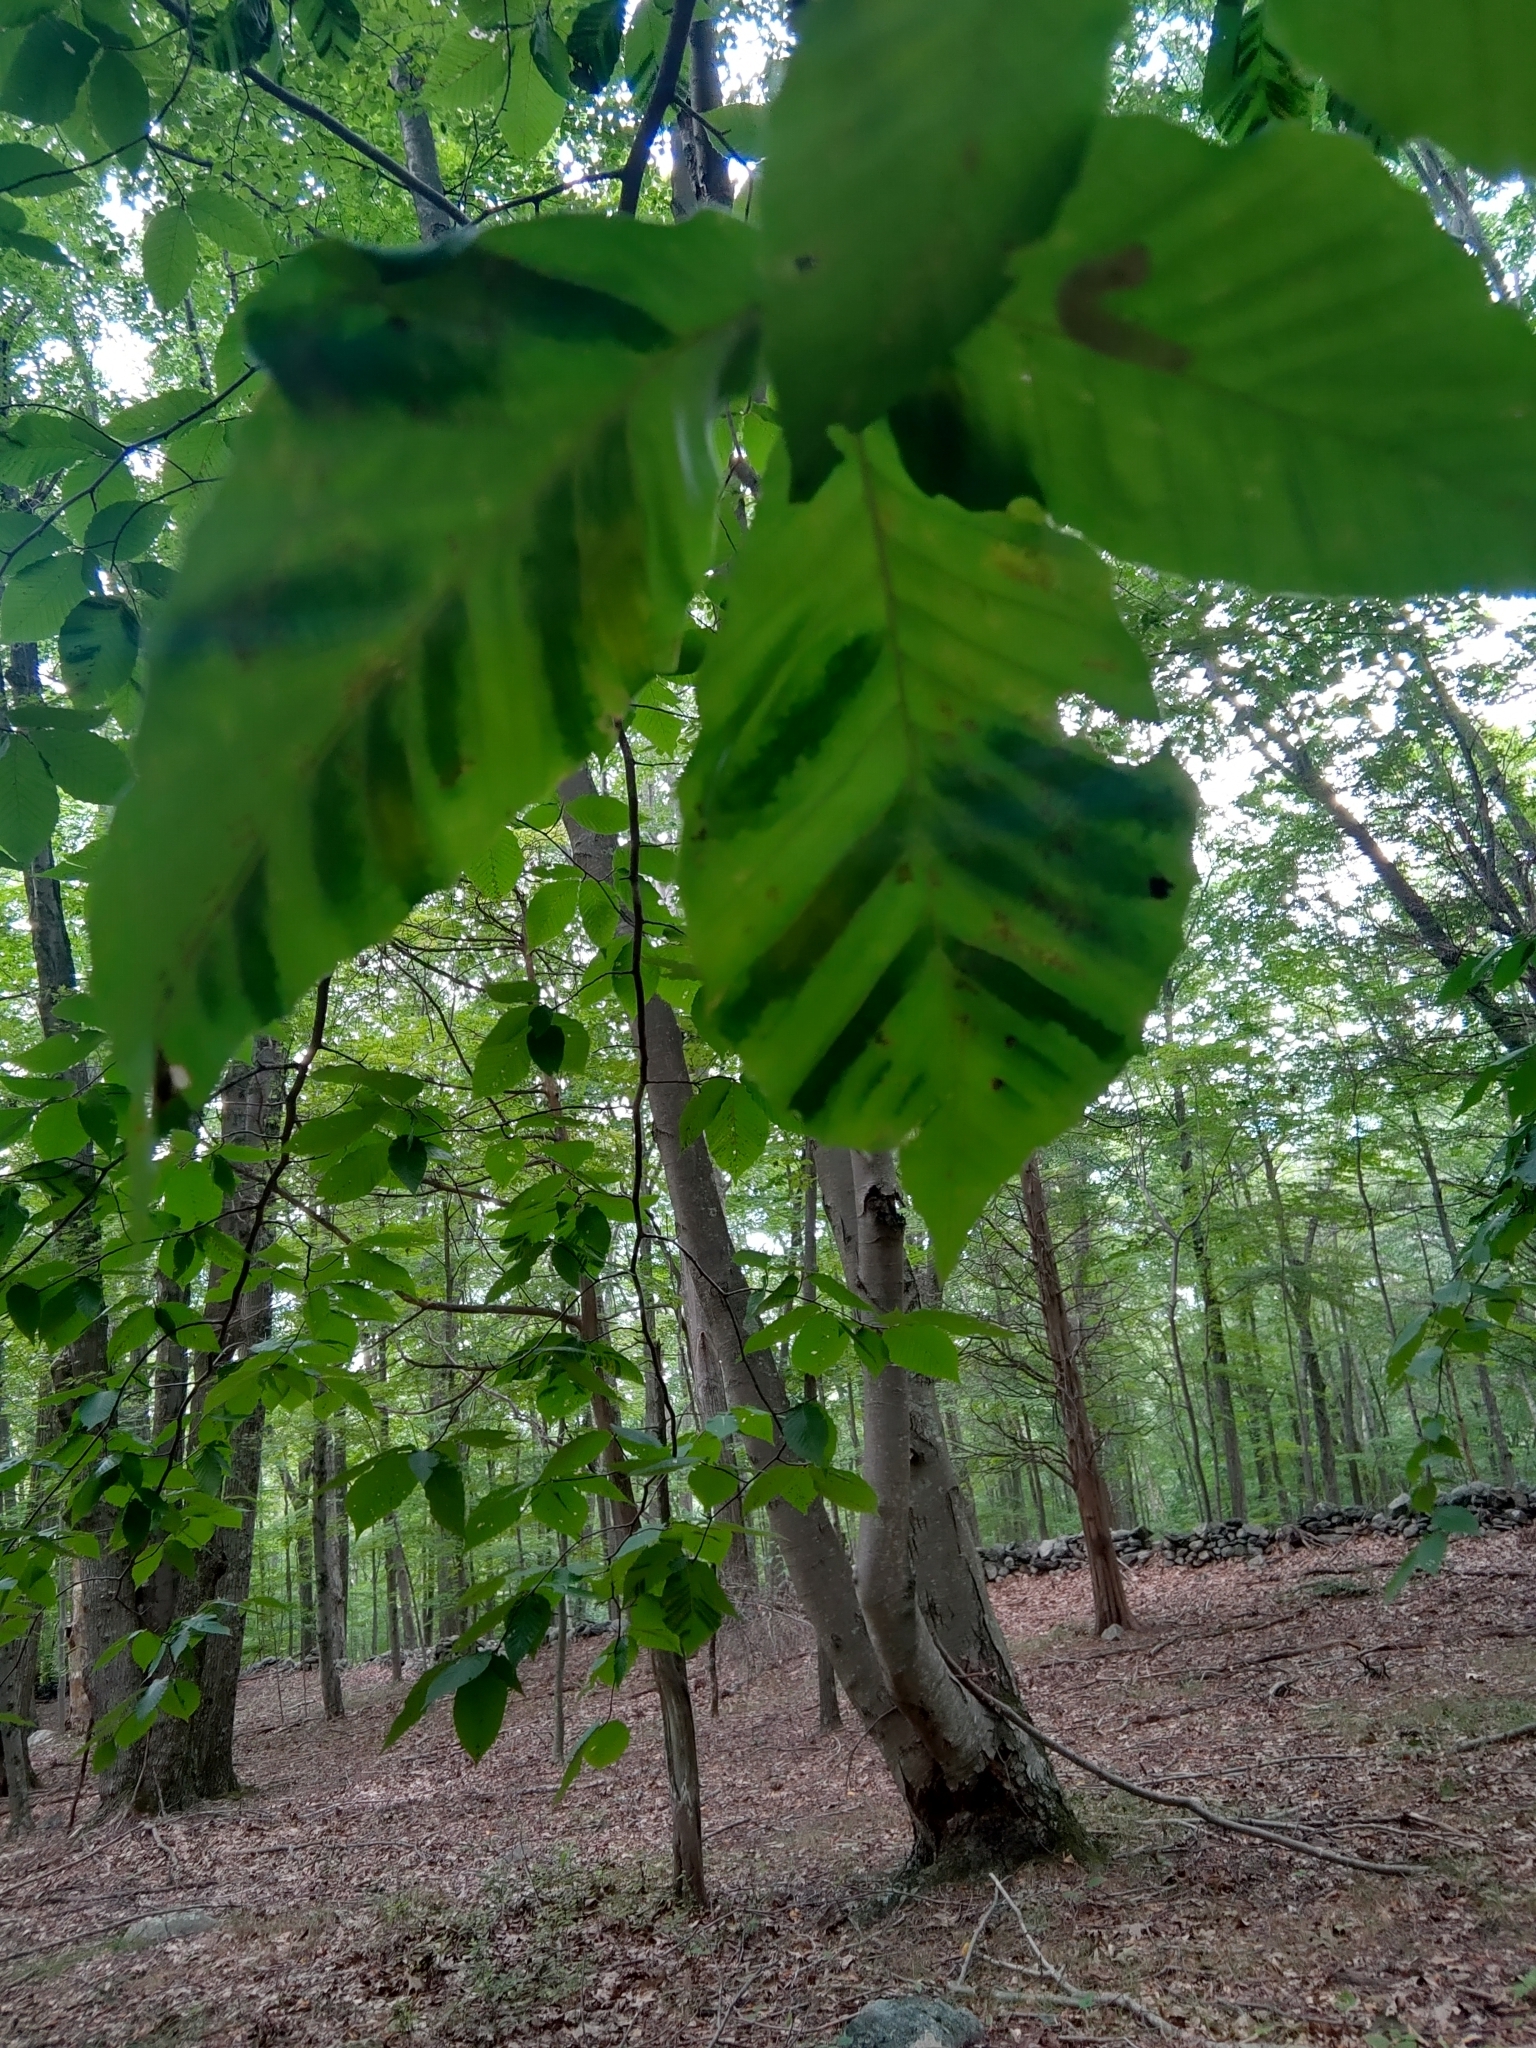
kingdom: Animalia
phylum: Nematoda
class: Chromadorea
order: Rhabditida
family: Anguinidae
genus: Litylenchus
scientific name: Litylenchus crenatae
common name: Beech leaf disease
